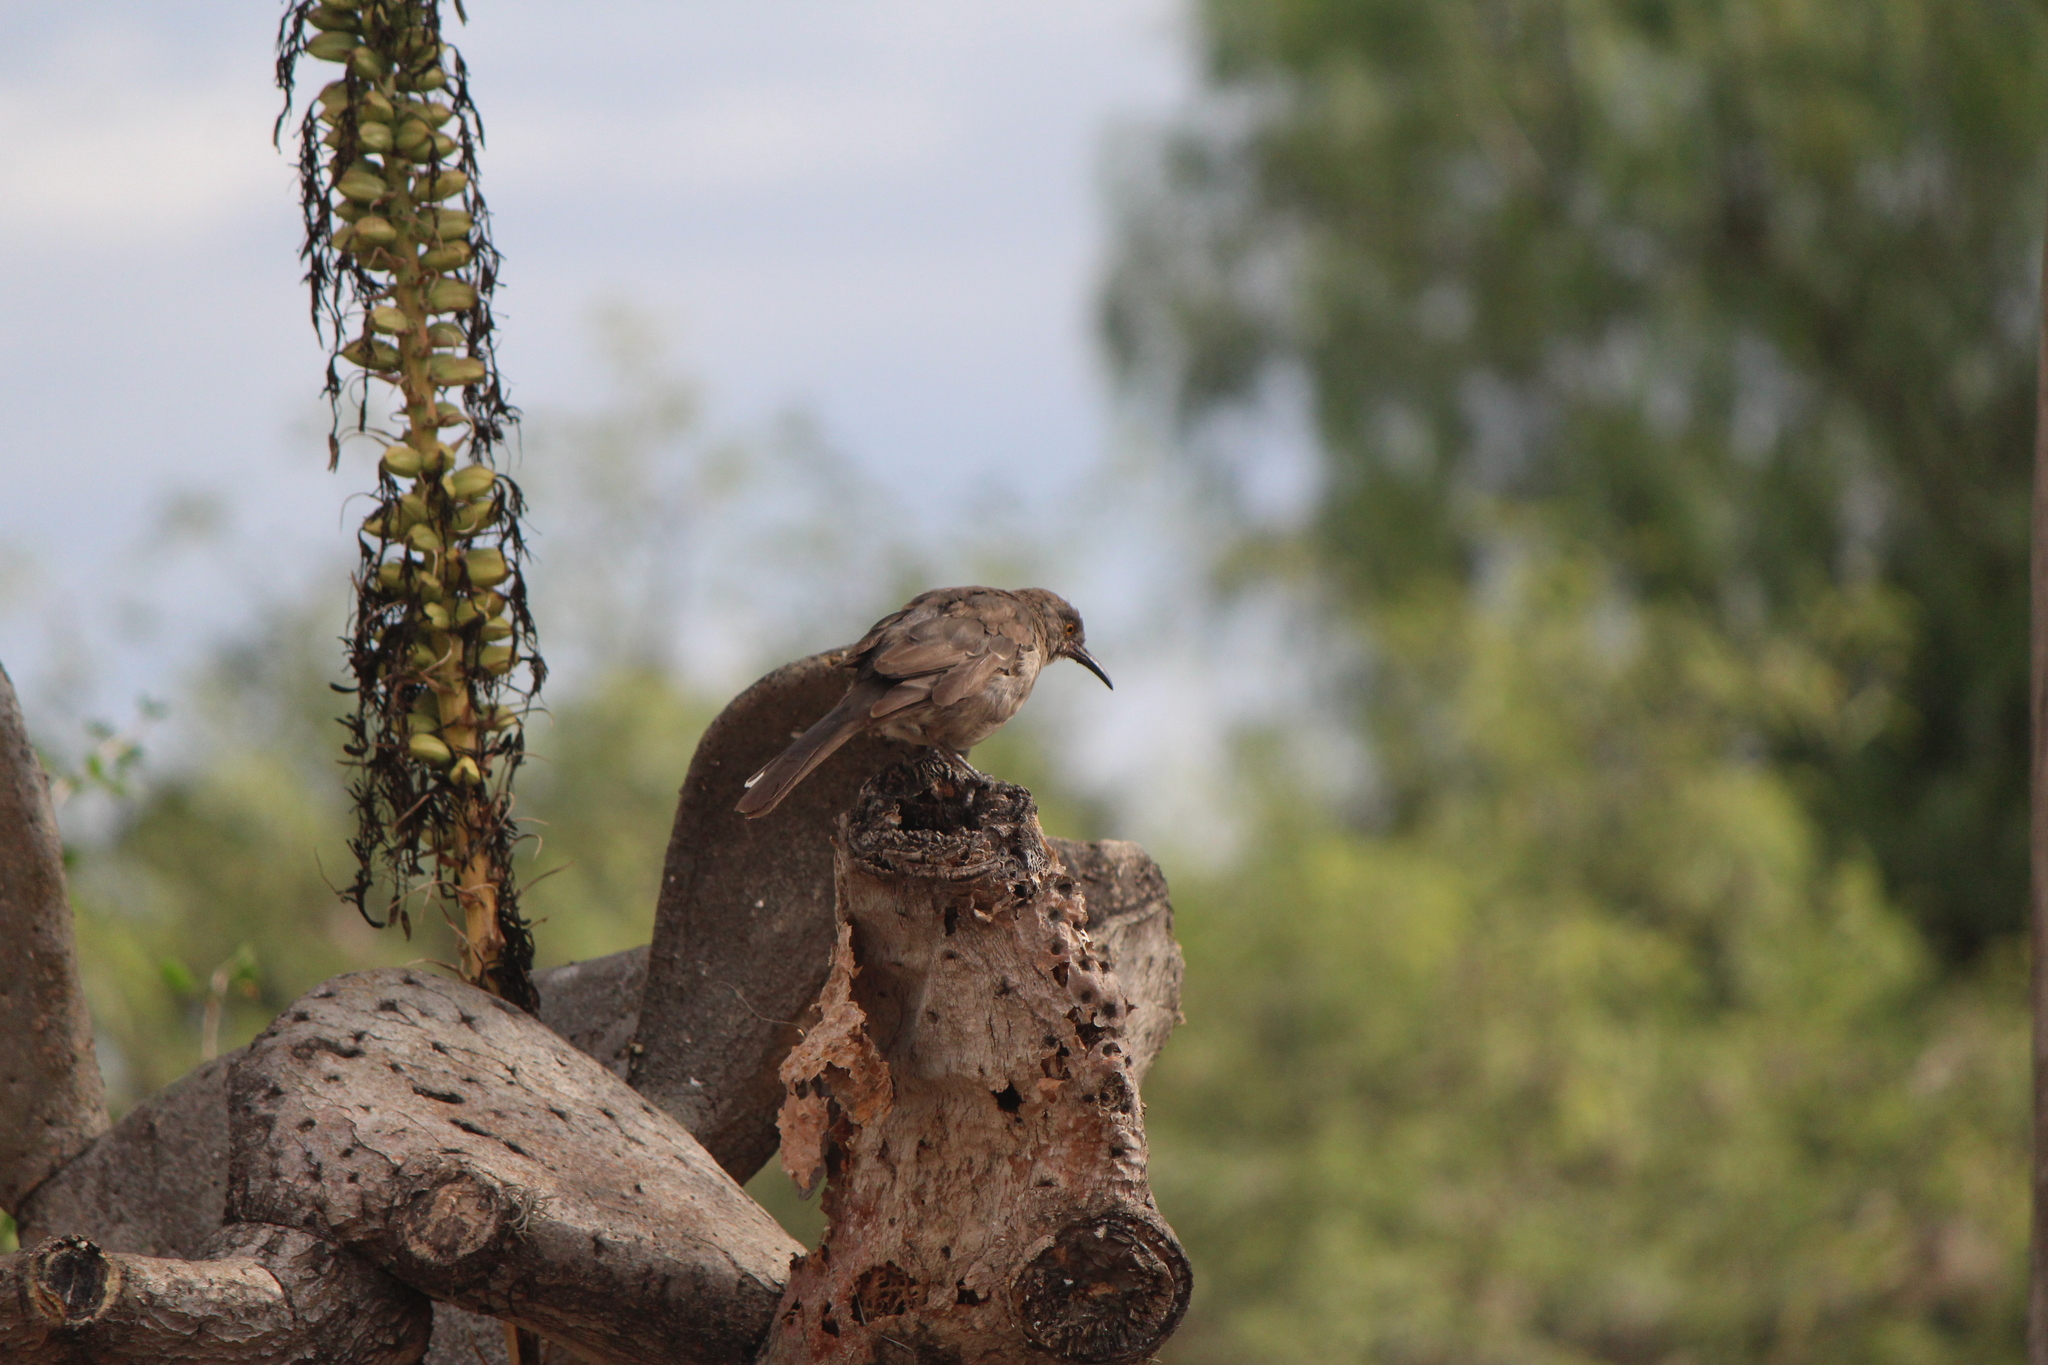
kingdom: Animalia
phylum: Chordata
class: Aves
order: Passeriformes
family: Mimidae
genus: Toxostoma
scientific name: Toxostoma curvirostre
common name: Curve-billed thrasher
